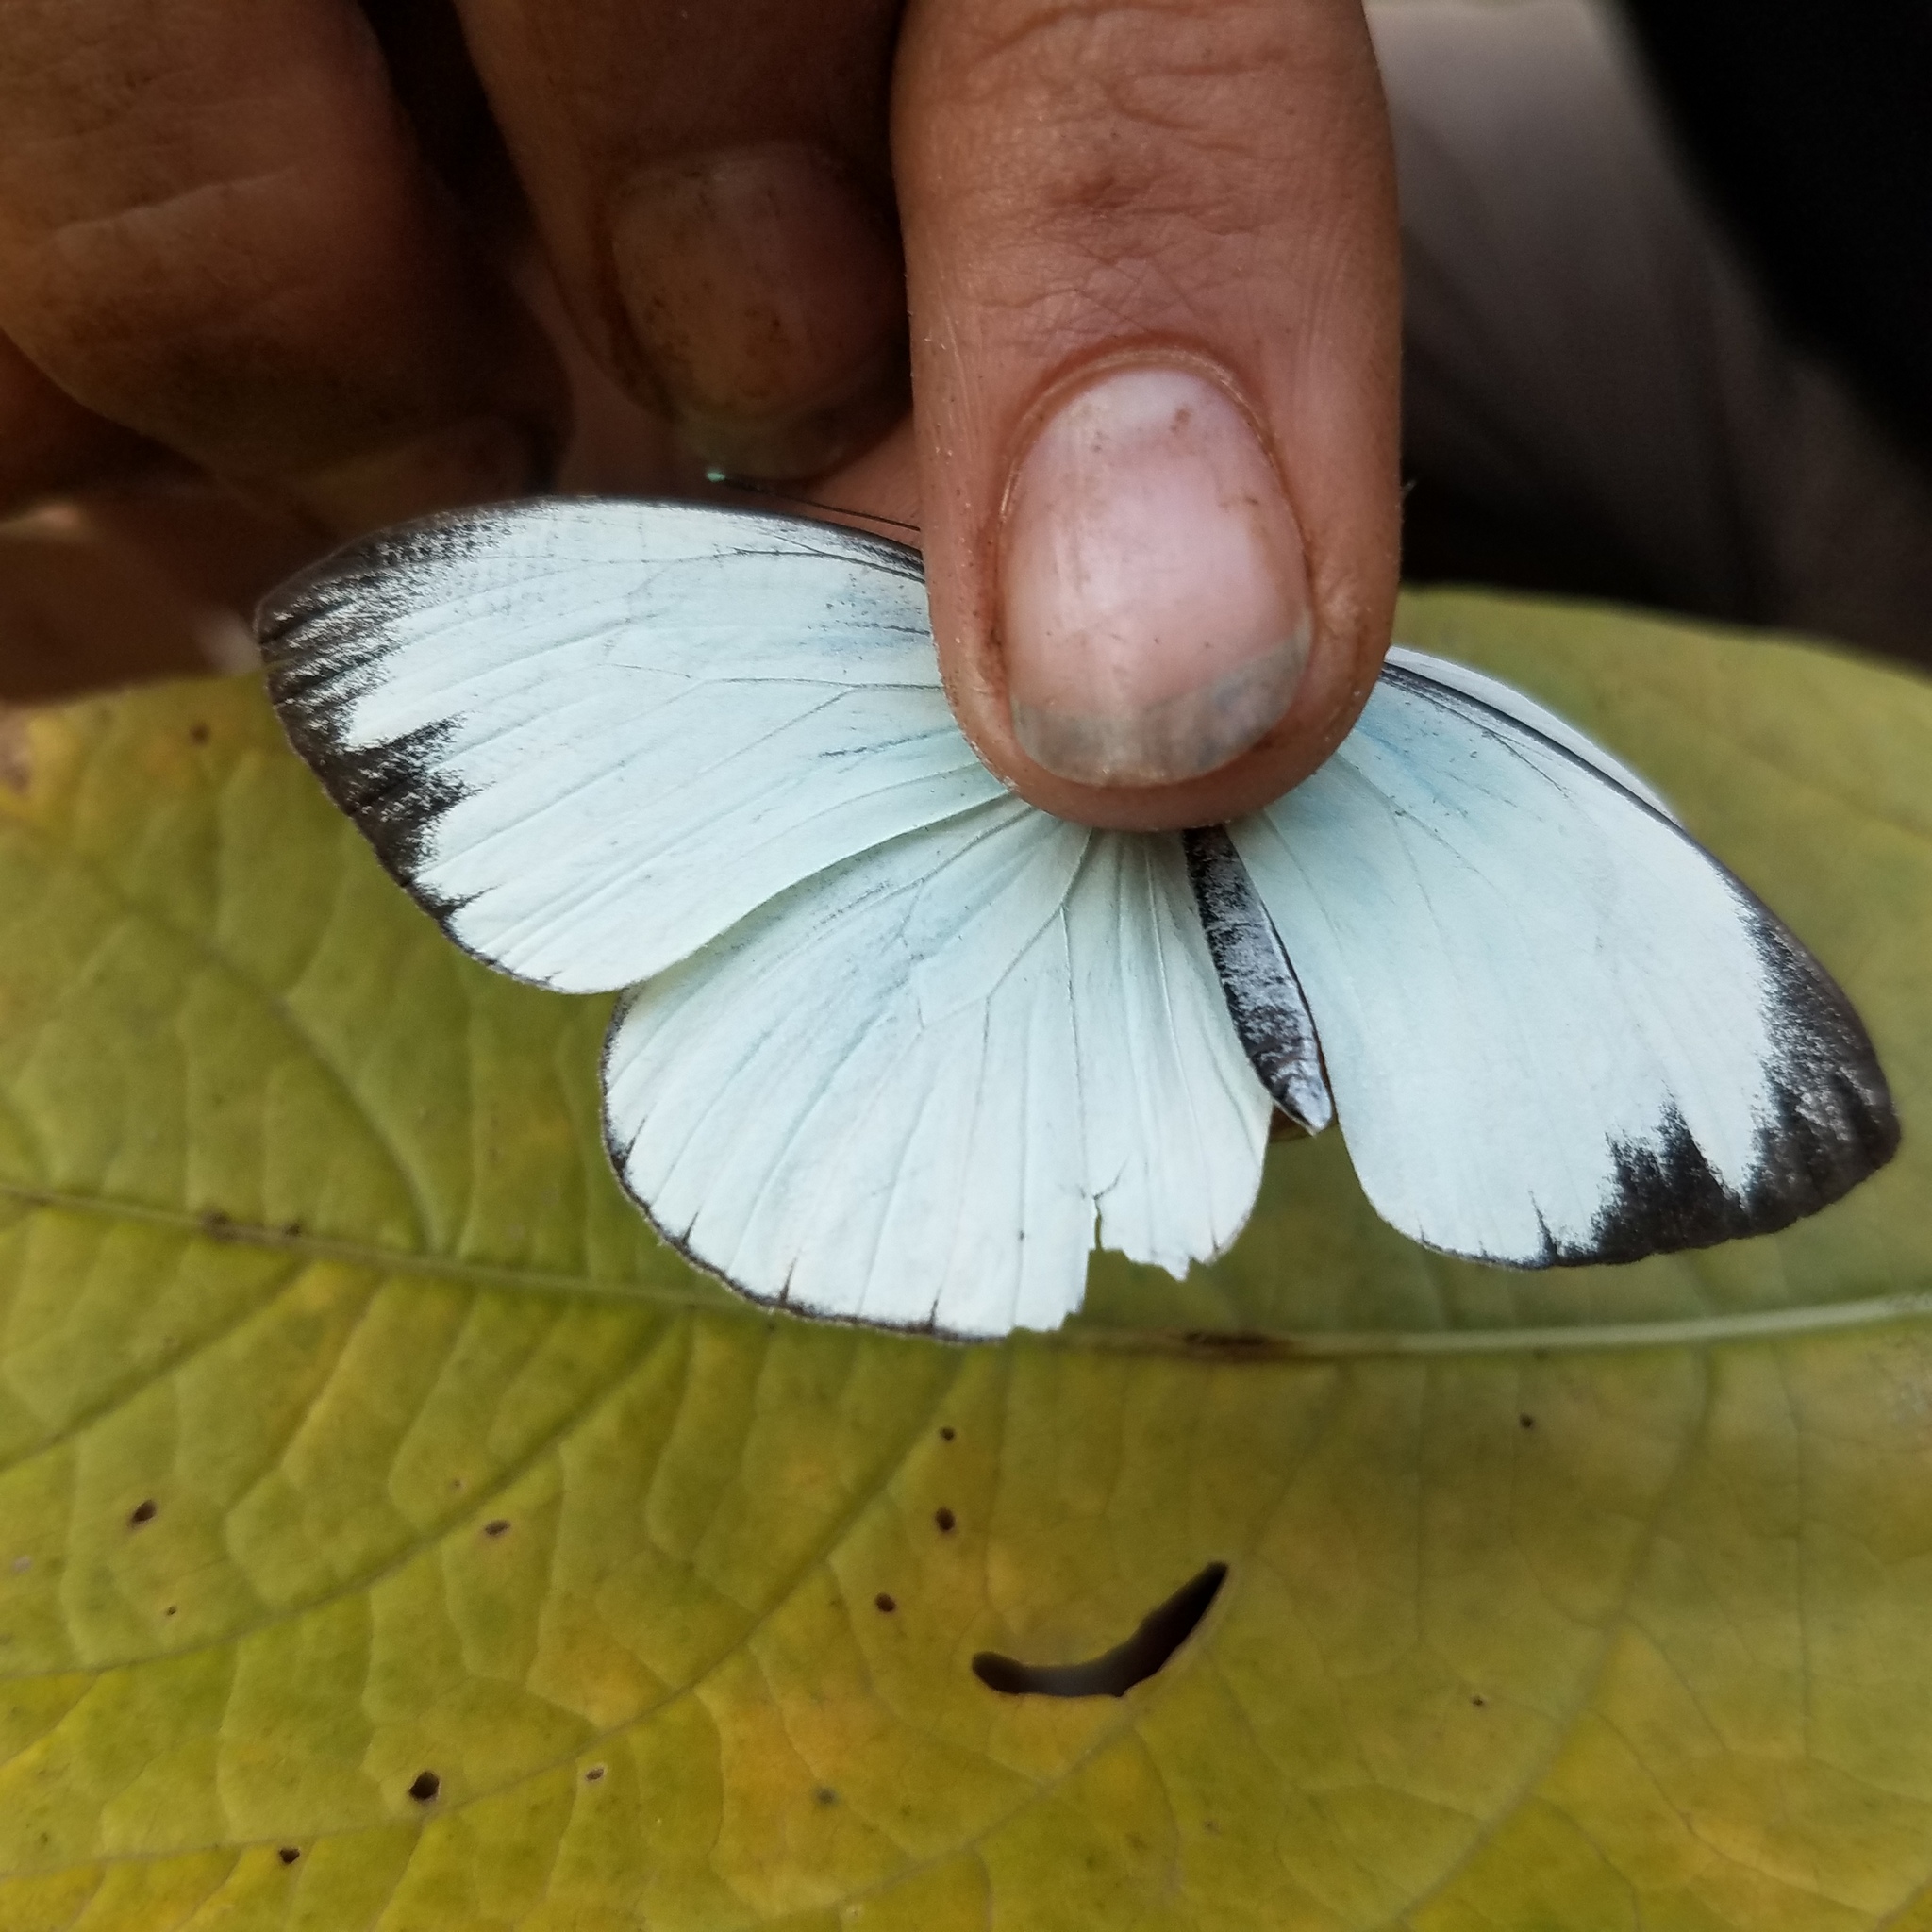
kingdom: Animalia
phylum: Arthropoda
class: Insecta
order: Lepidoptera
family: Pieridae
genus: Itaballia
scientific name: Itaballia demophile
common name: Cross-barred white
